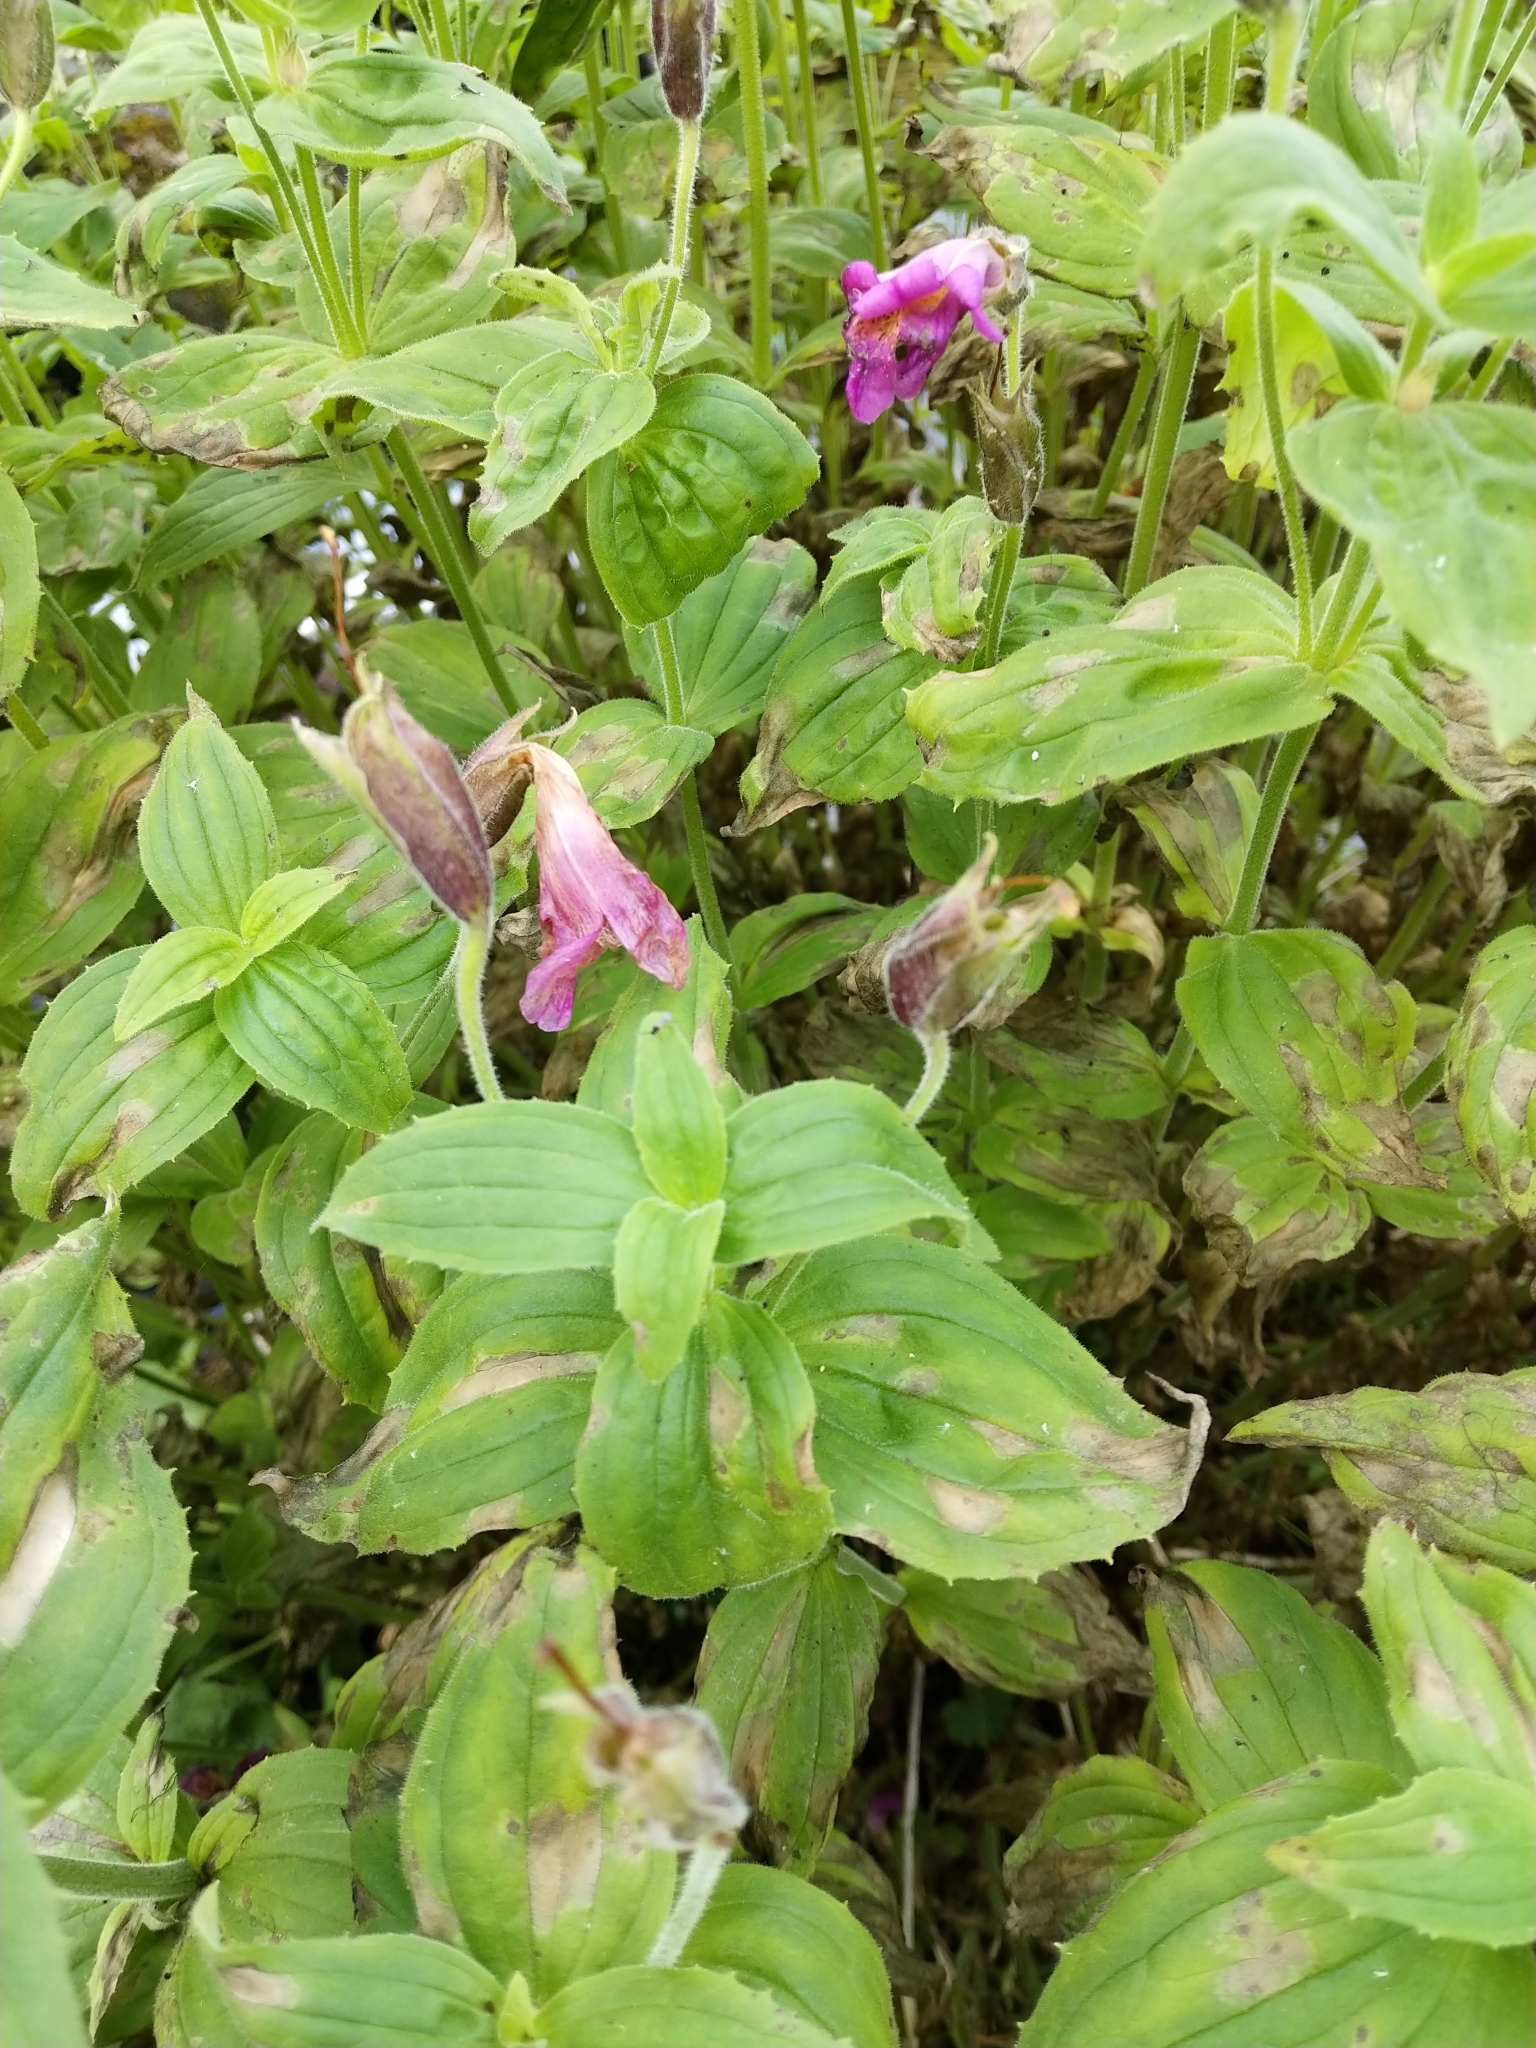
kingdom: Plantae
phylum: Tracheophyta
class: Magnoliopsida
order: Lamiales
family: Phrymaceae
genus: Erythranthe
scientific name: Erythranthe lewisii
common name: Lewis's monkey-flower
